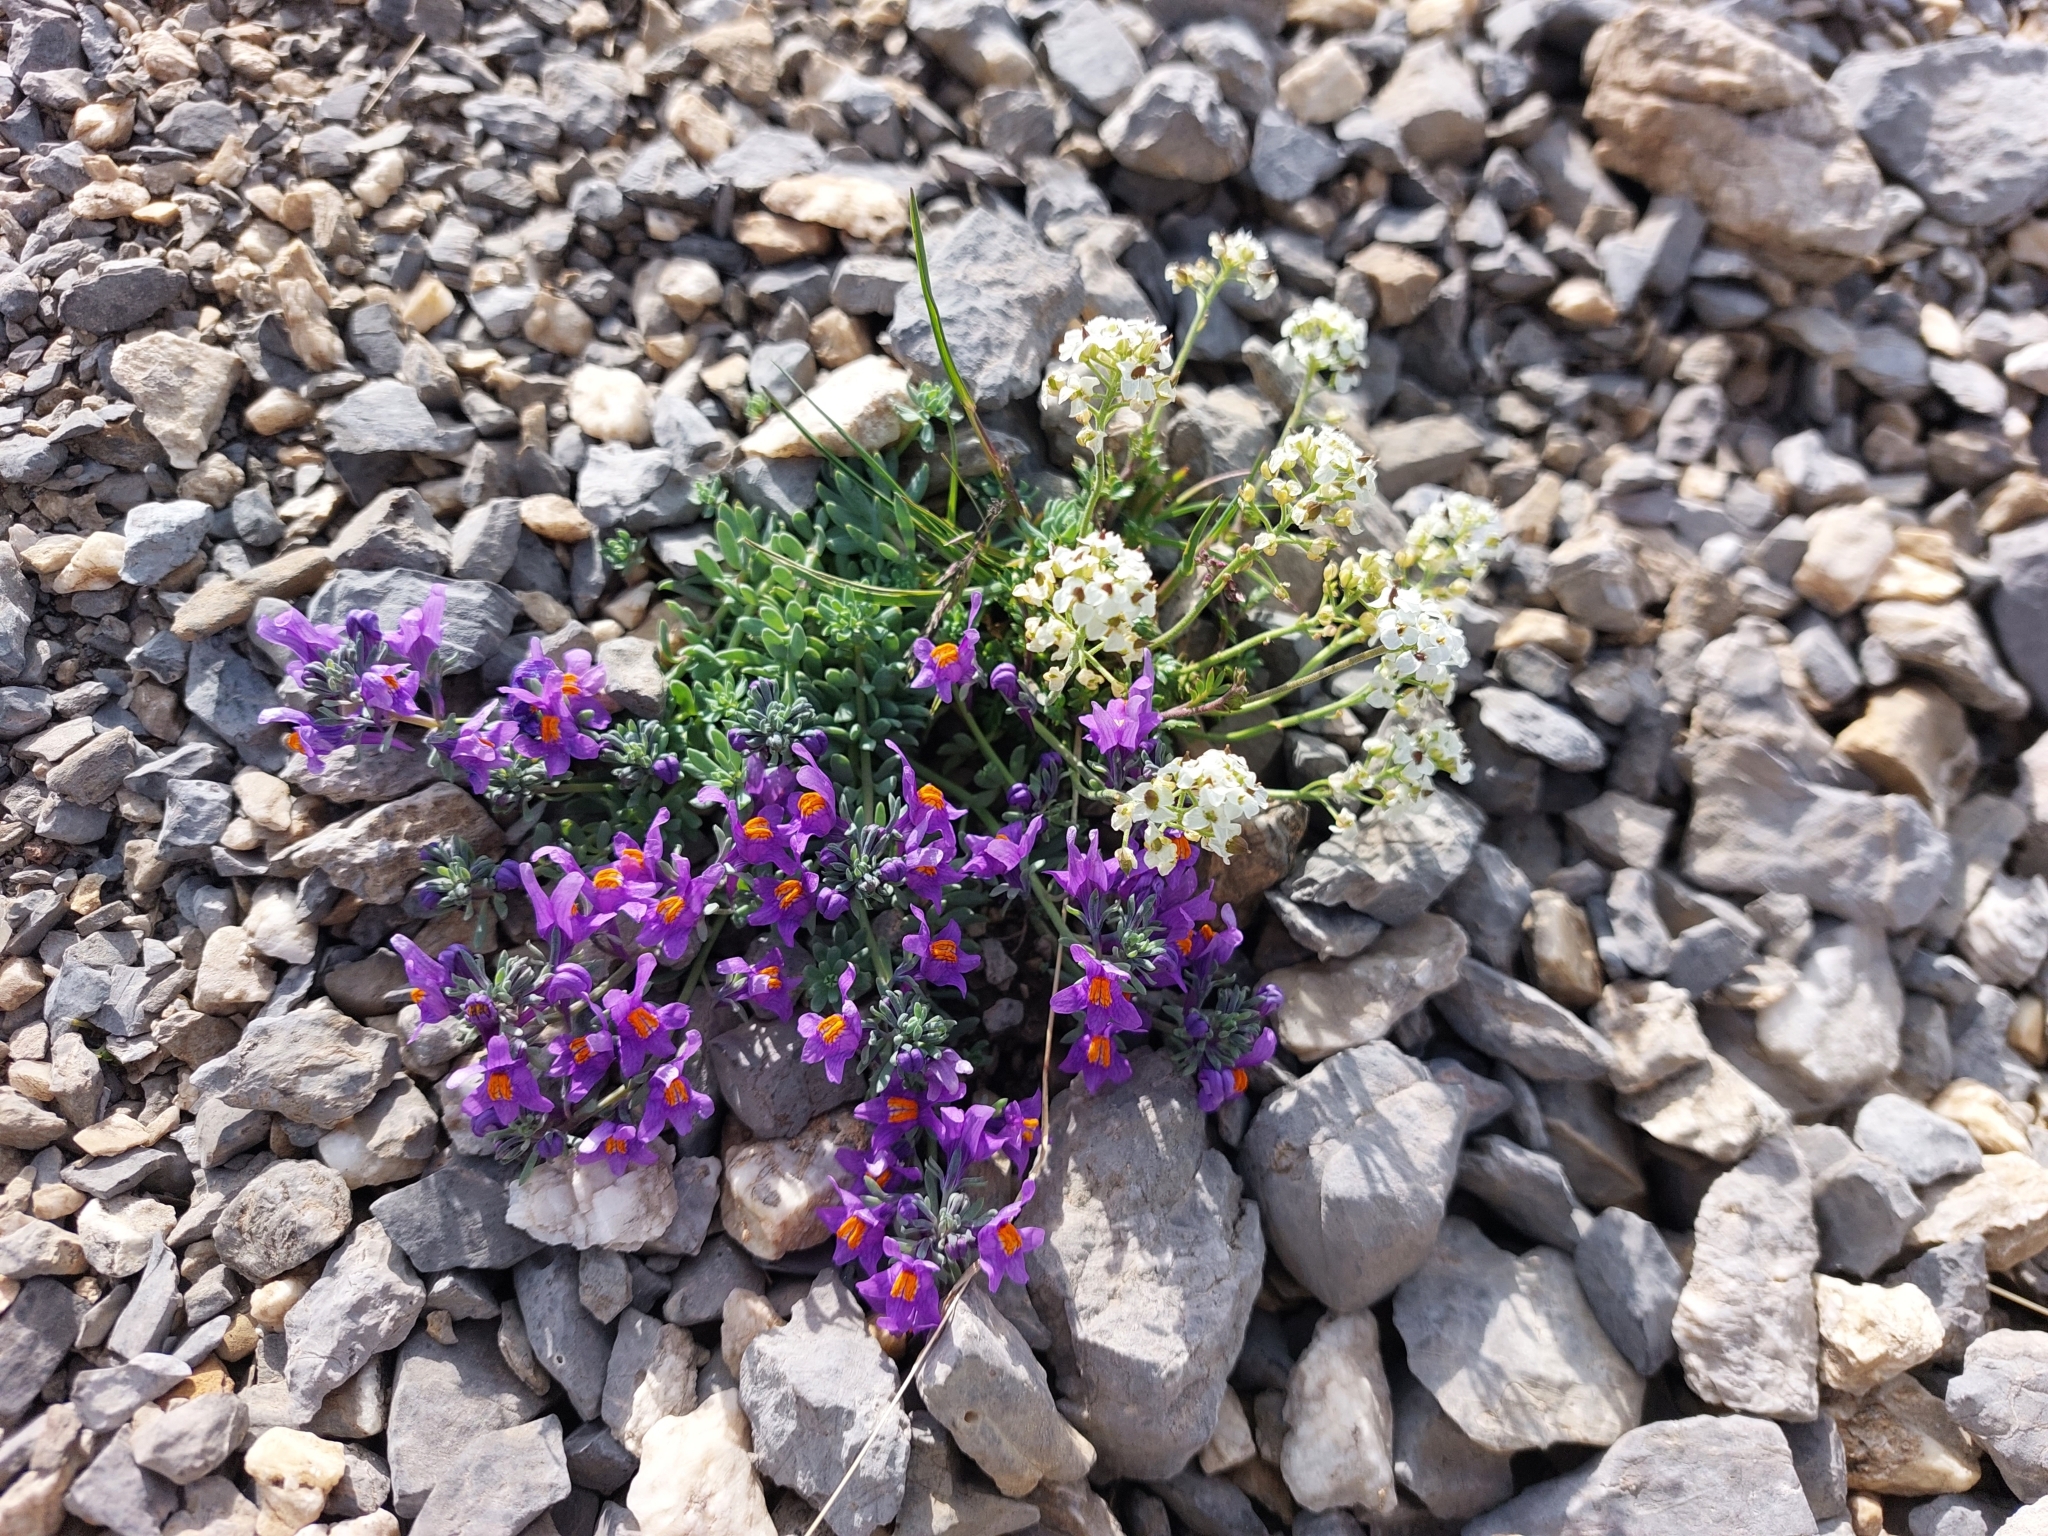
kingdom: Plantae
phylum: Tracheophyta
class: Magnoliopsida
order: Lamiales
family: Plantaginaceae
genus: Linaria
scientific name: Linaria alpina
